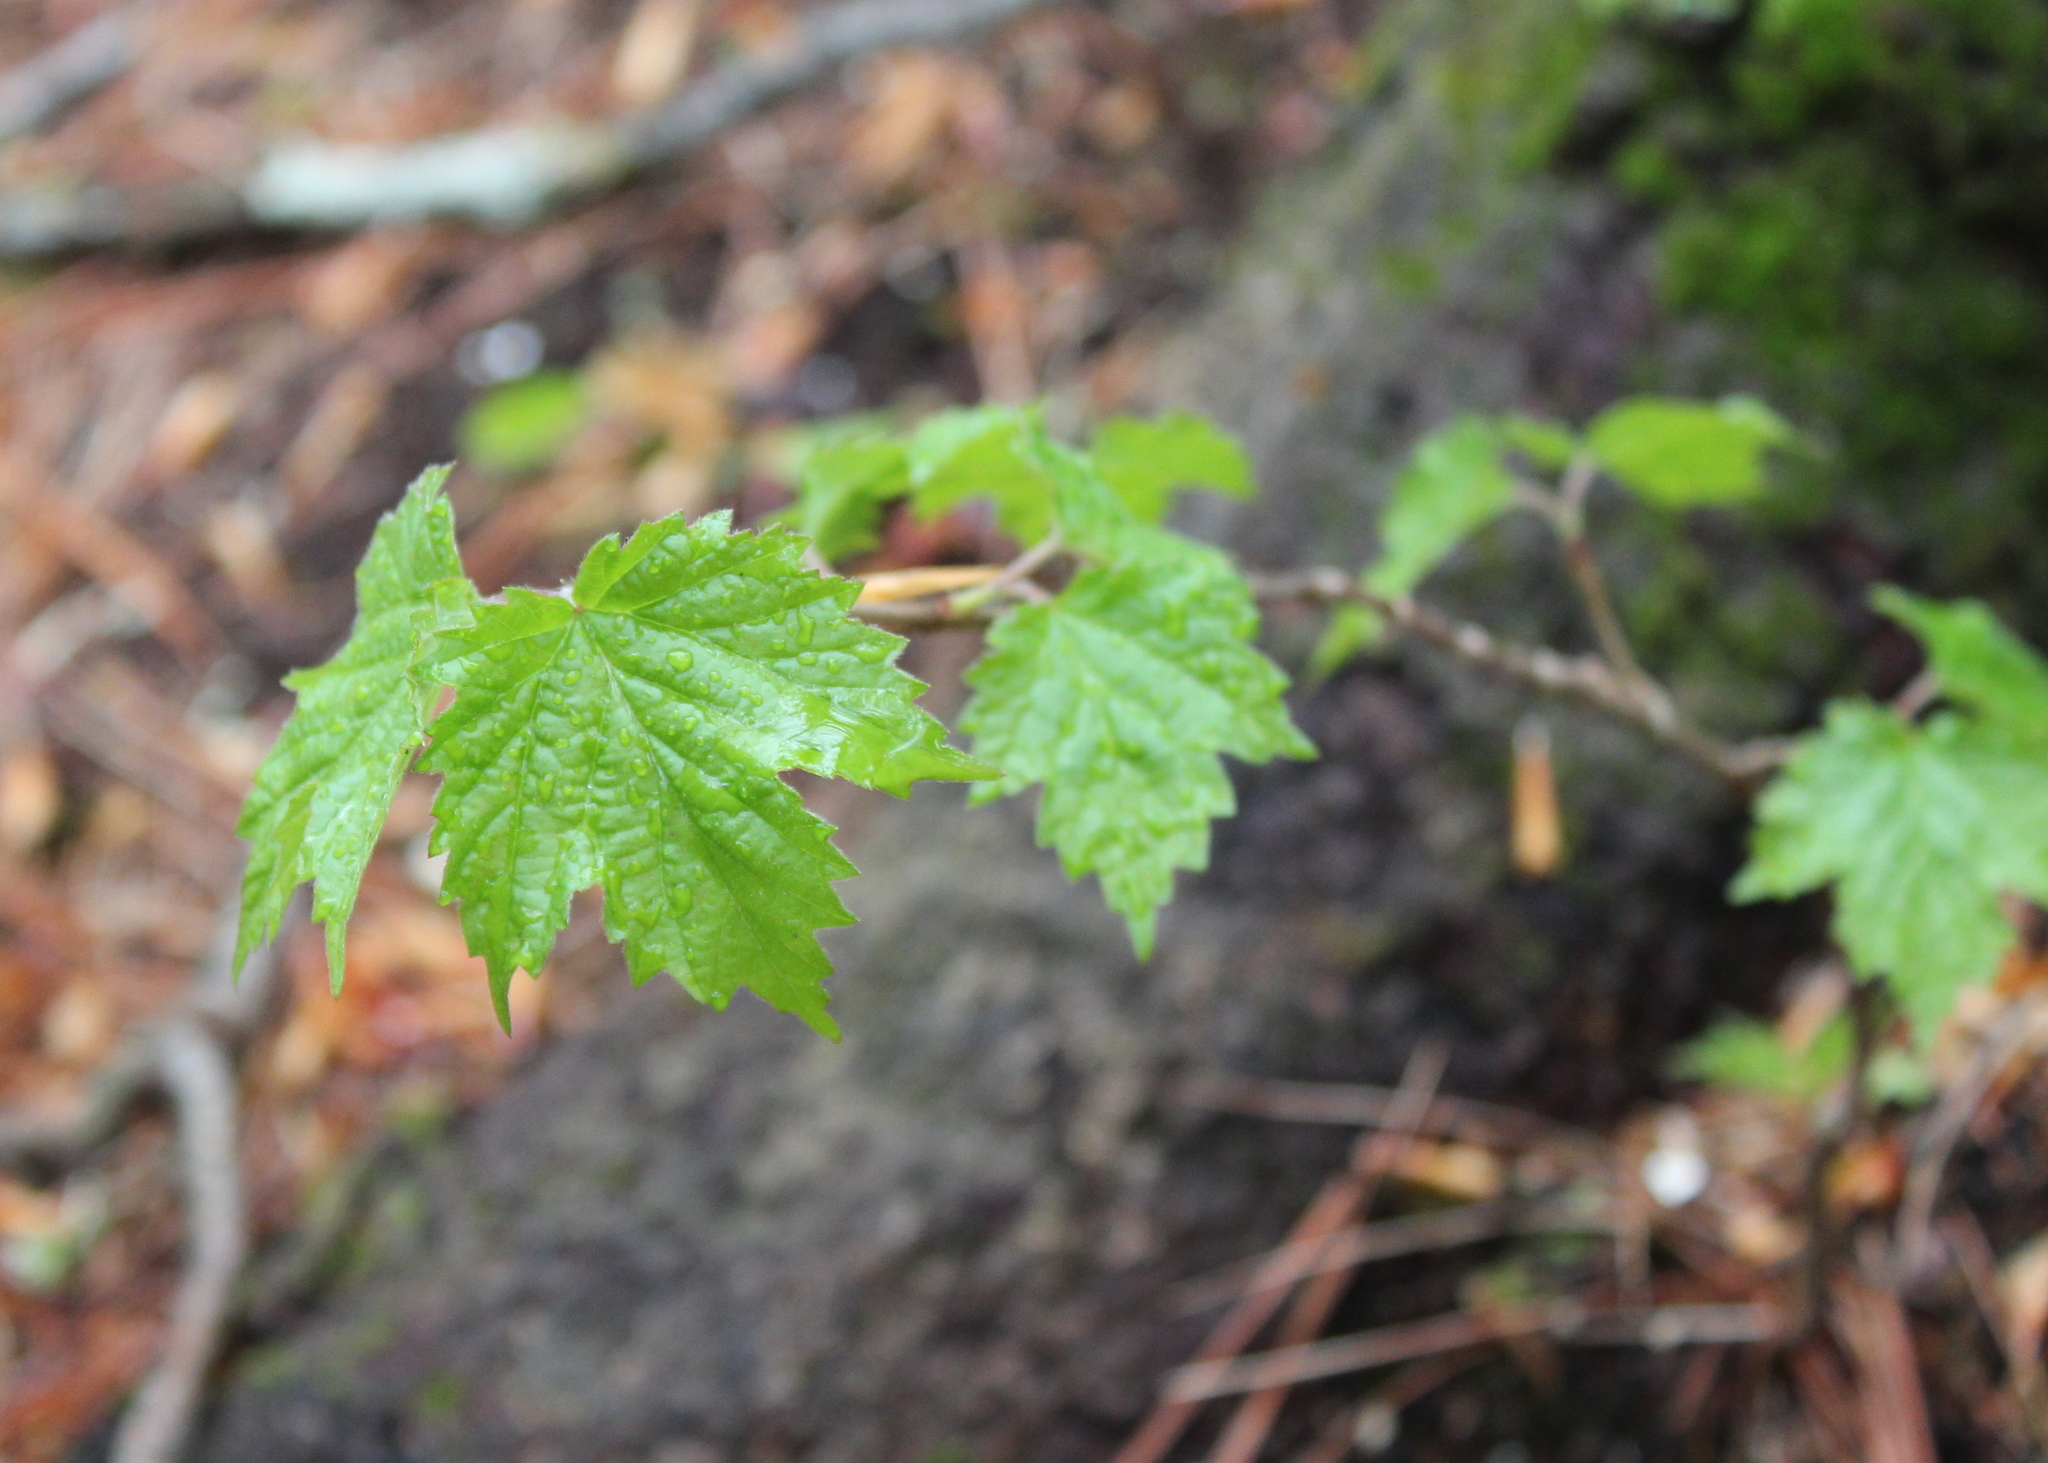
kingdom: Plantae
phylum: Tracheophyta
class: Magnoliopsida
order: Dipsacales
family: Viburnaceae
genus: Viburnum
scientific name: Viburnum acerifolium
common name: Dockmackie
